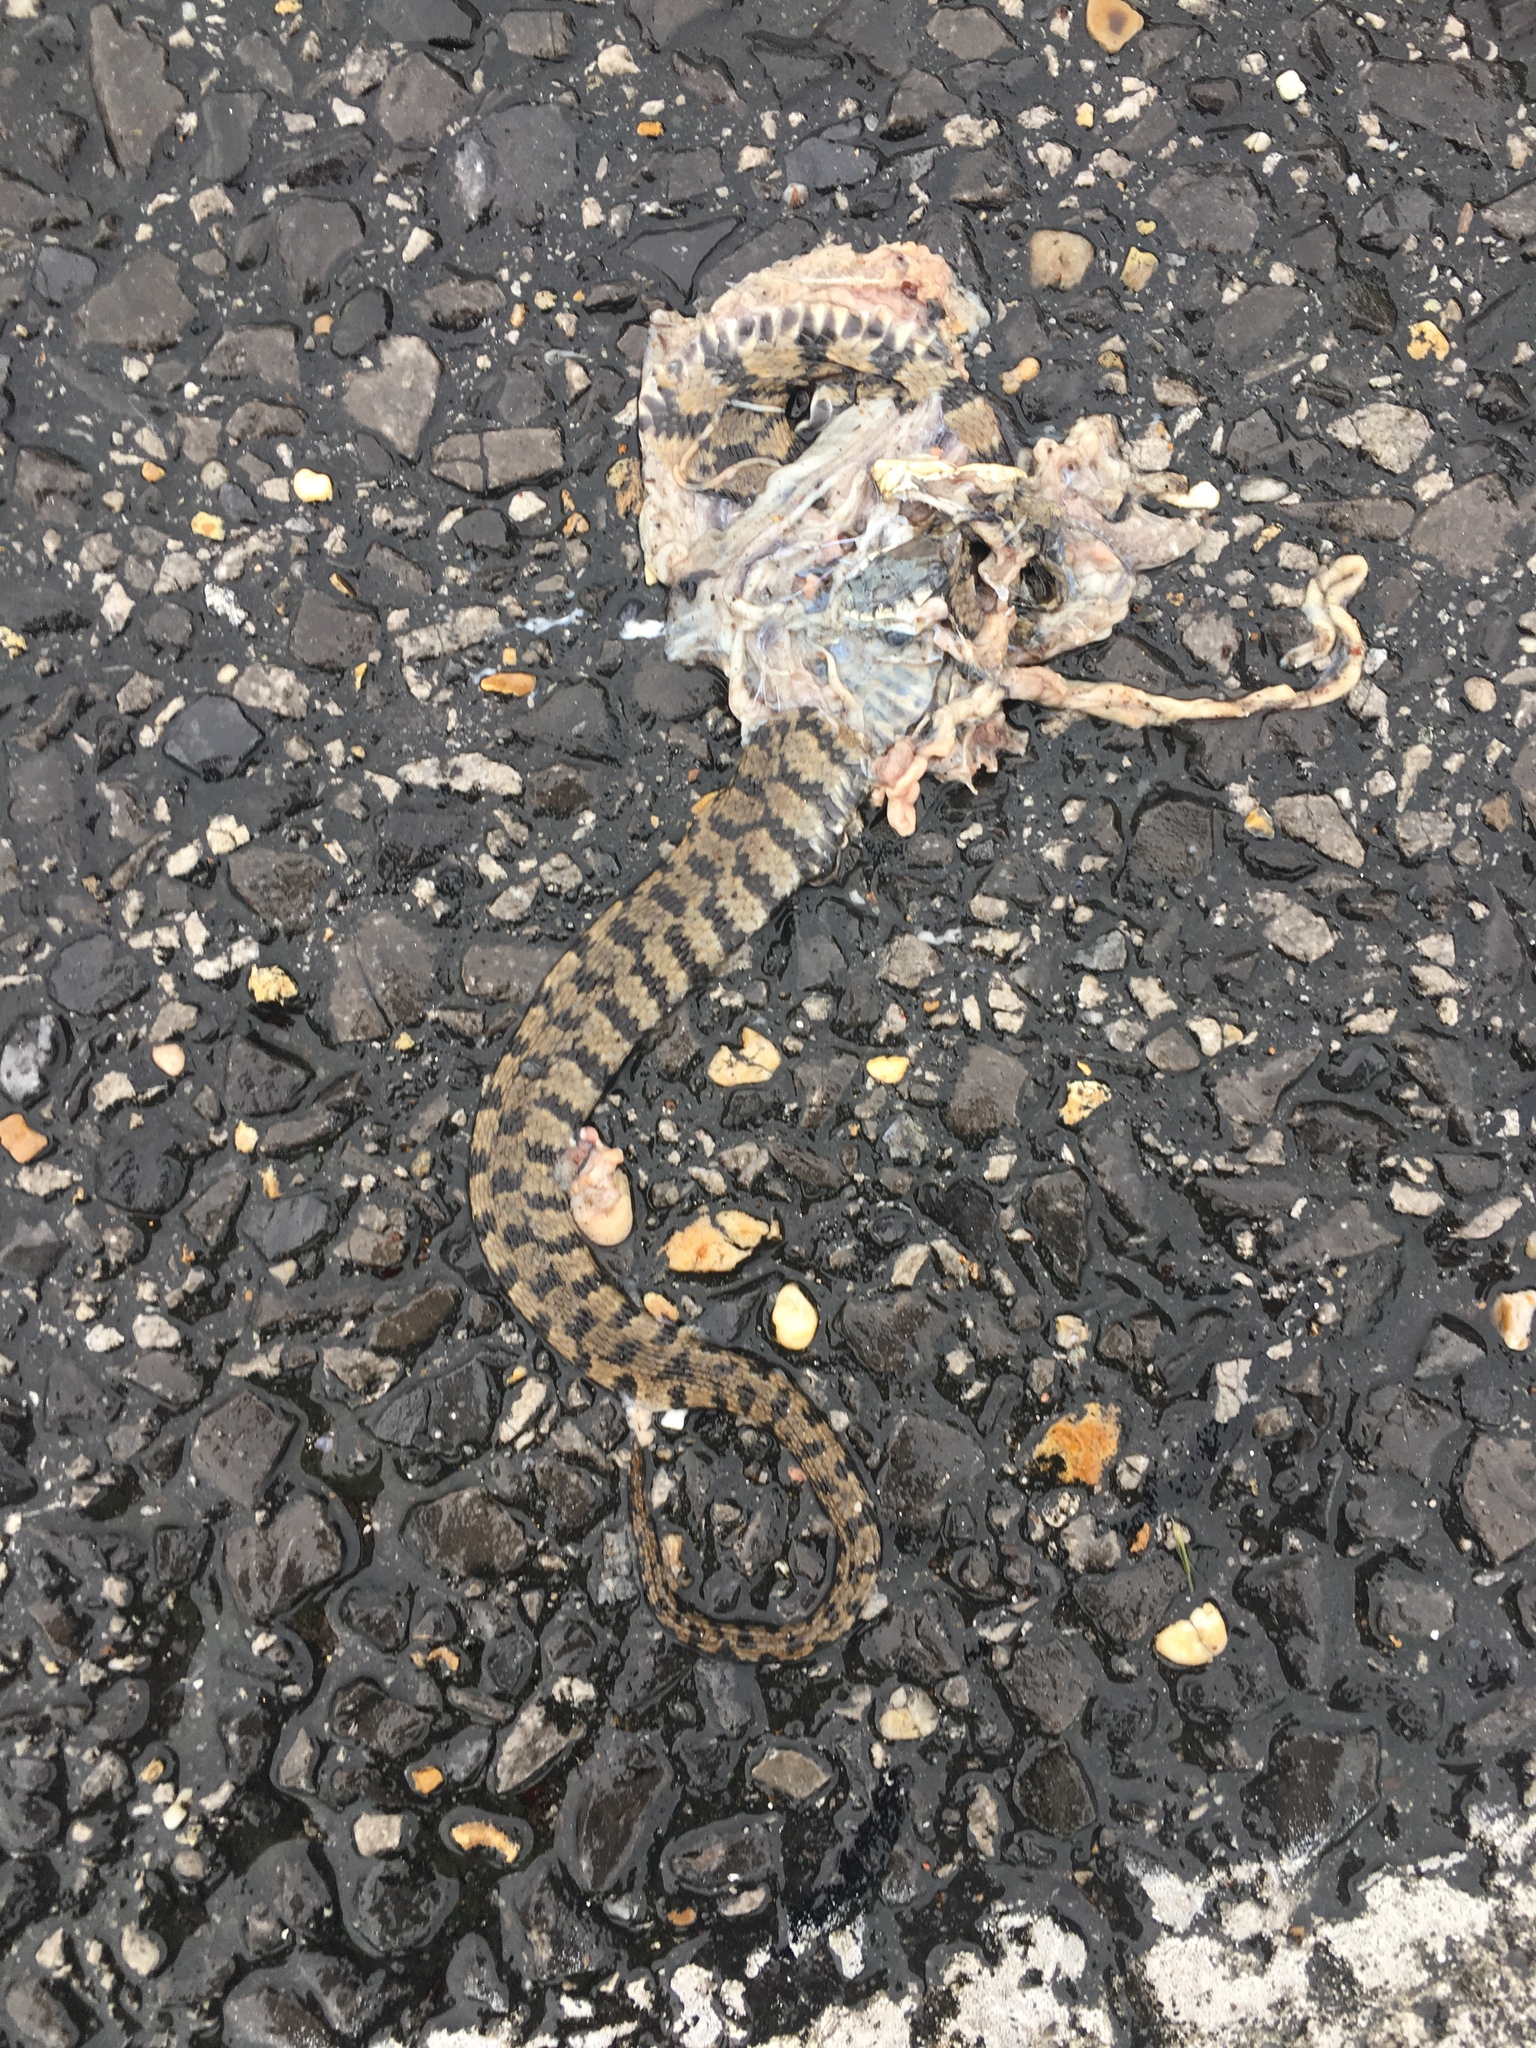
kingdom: Animalia
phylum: Chordata
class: Squamata
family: Colubridae
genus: Nerodia
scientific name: Nerodia rhombifer
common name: Diamondback water snake
